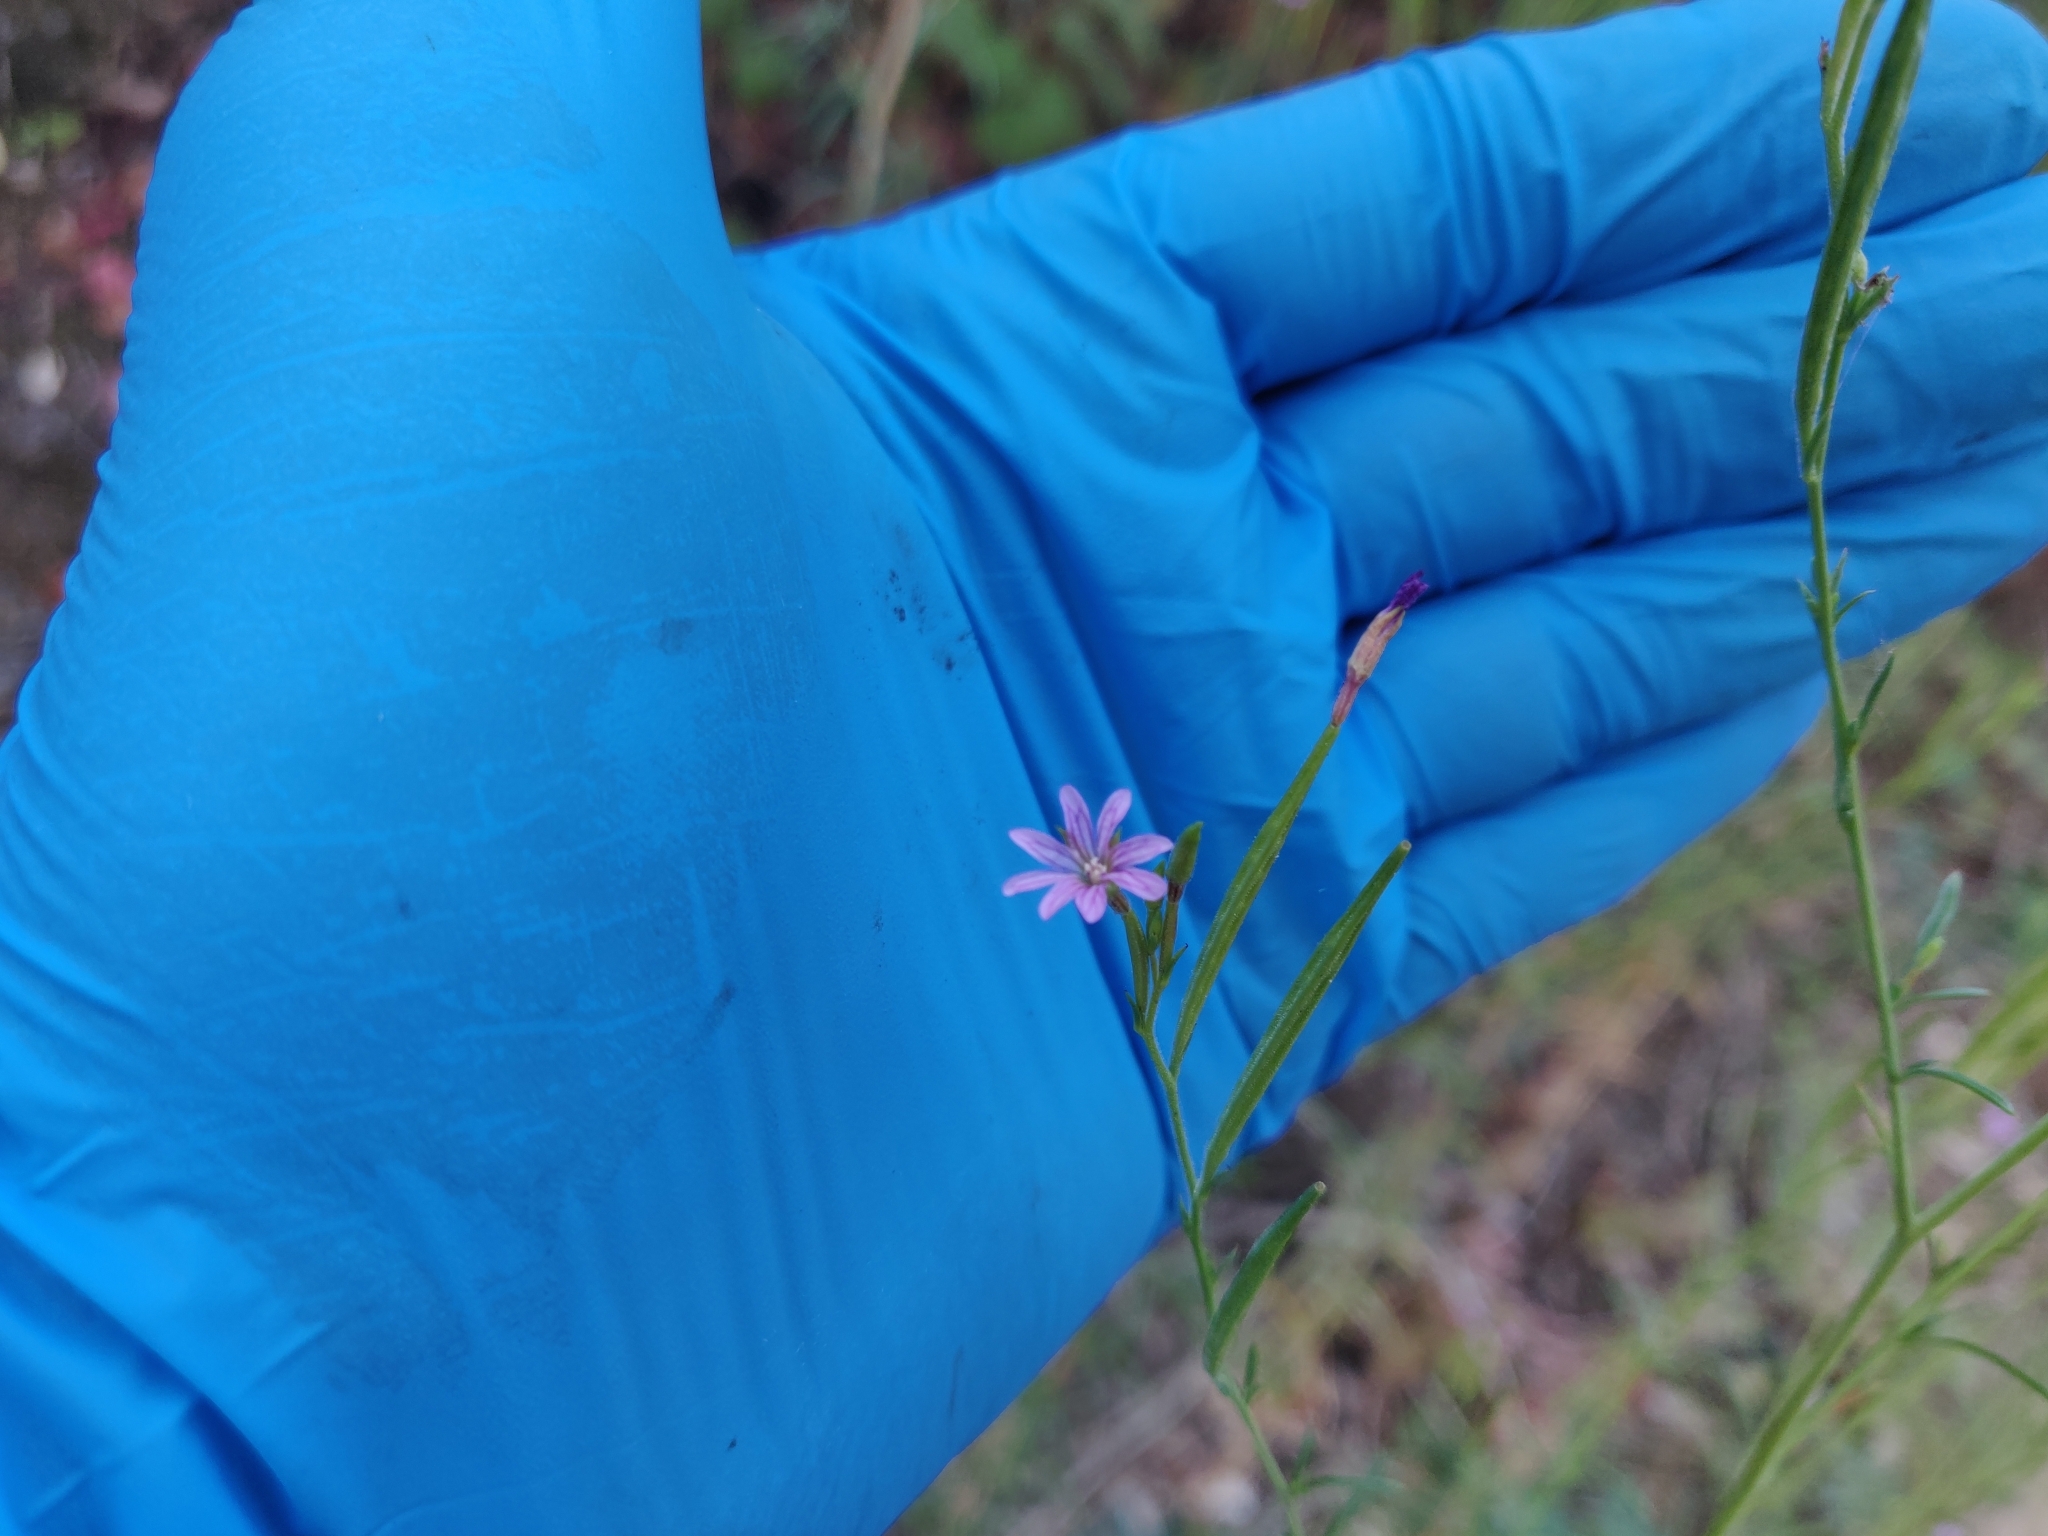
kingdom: Plantae
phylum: Tracheophyta
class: Magnoliopsida
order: Myrtales
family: Onagraceae
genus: Epilobium
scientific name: Epilobium brachycarpum
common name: Annual willowherb
